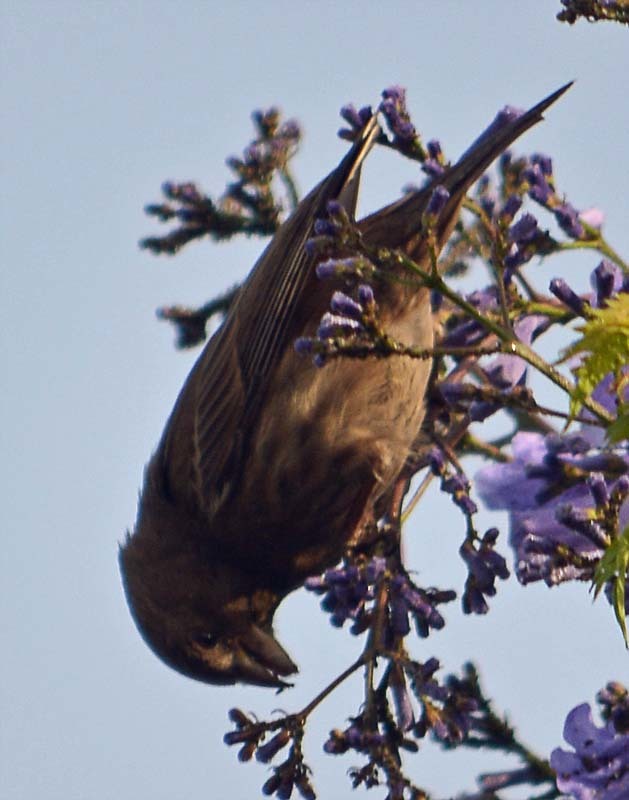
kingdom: Animalia
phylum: Chordata
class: Aves
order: Passeriformes
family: Fringillidae
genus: Haemorhous
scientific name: Haemorhous mexicanus
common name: House finch
